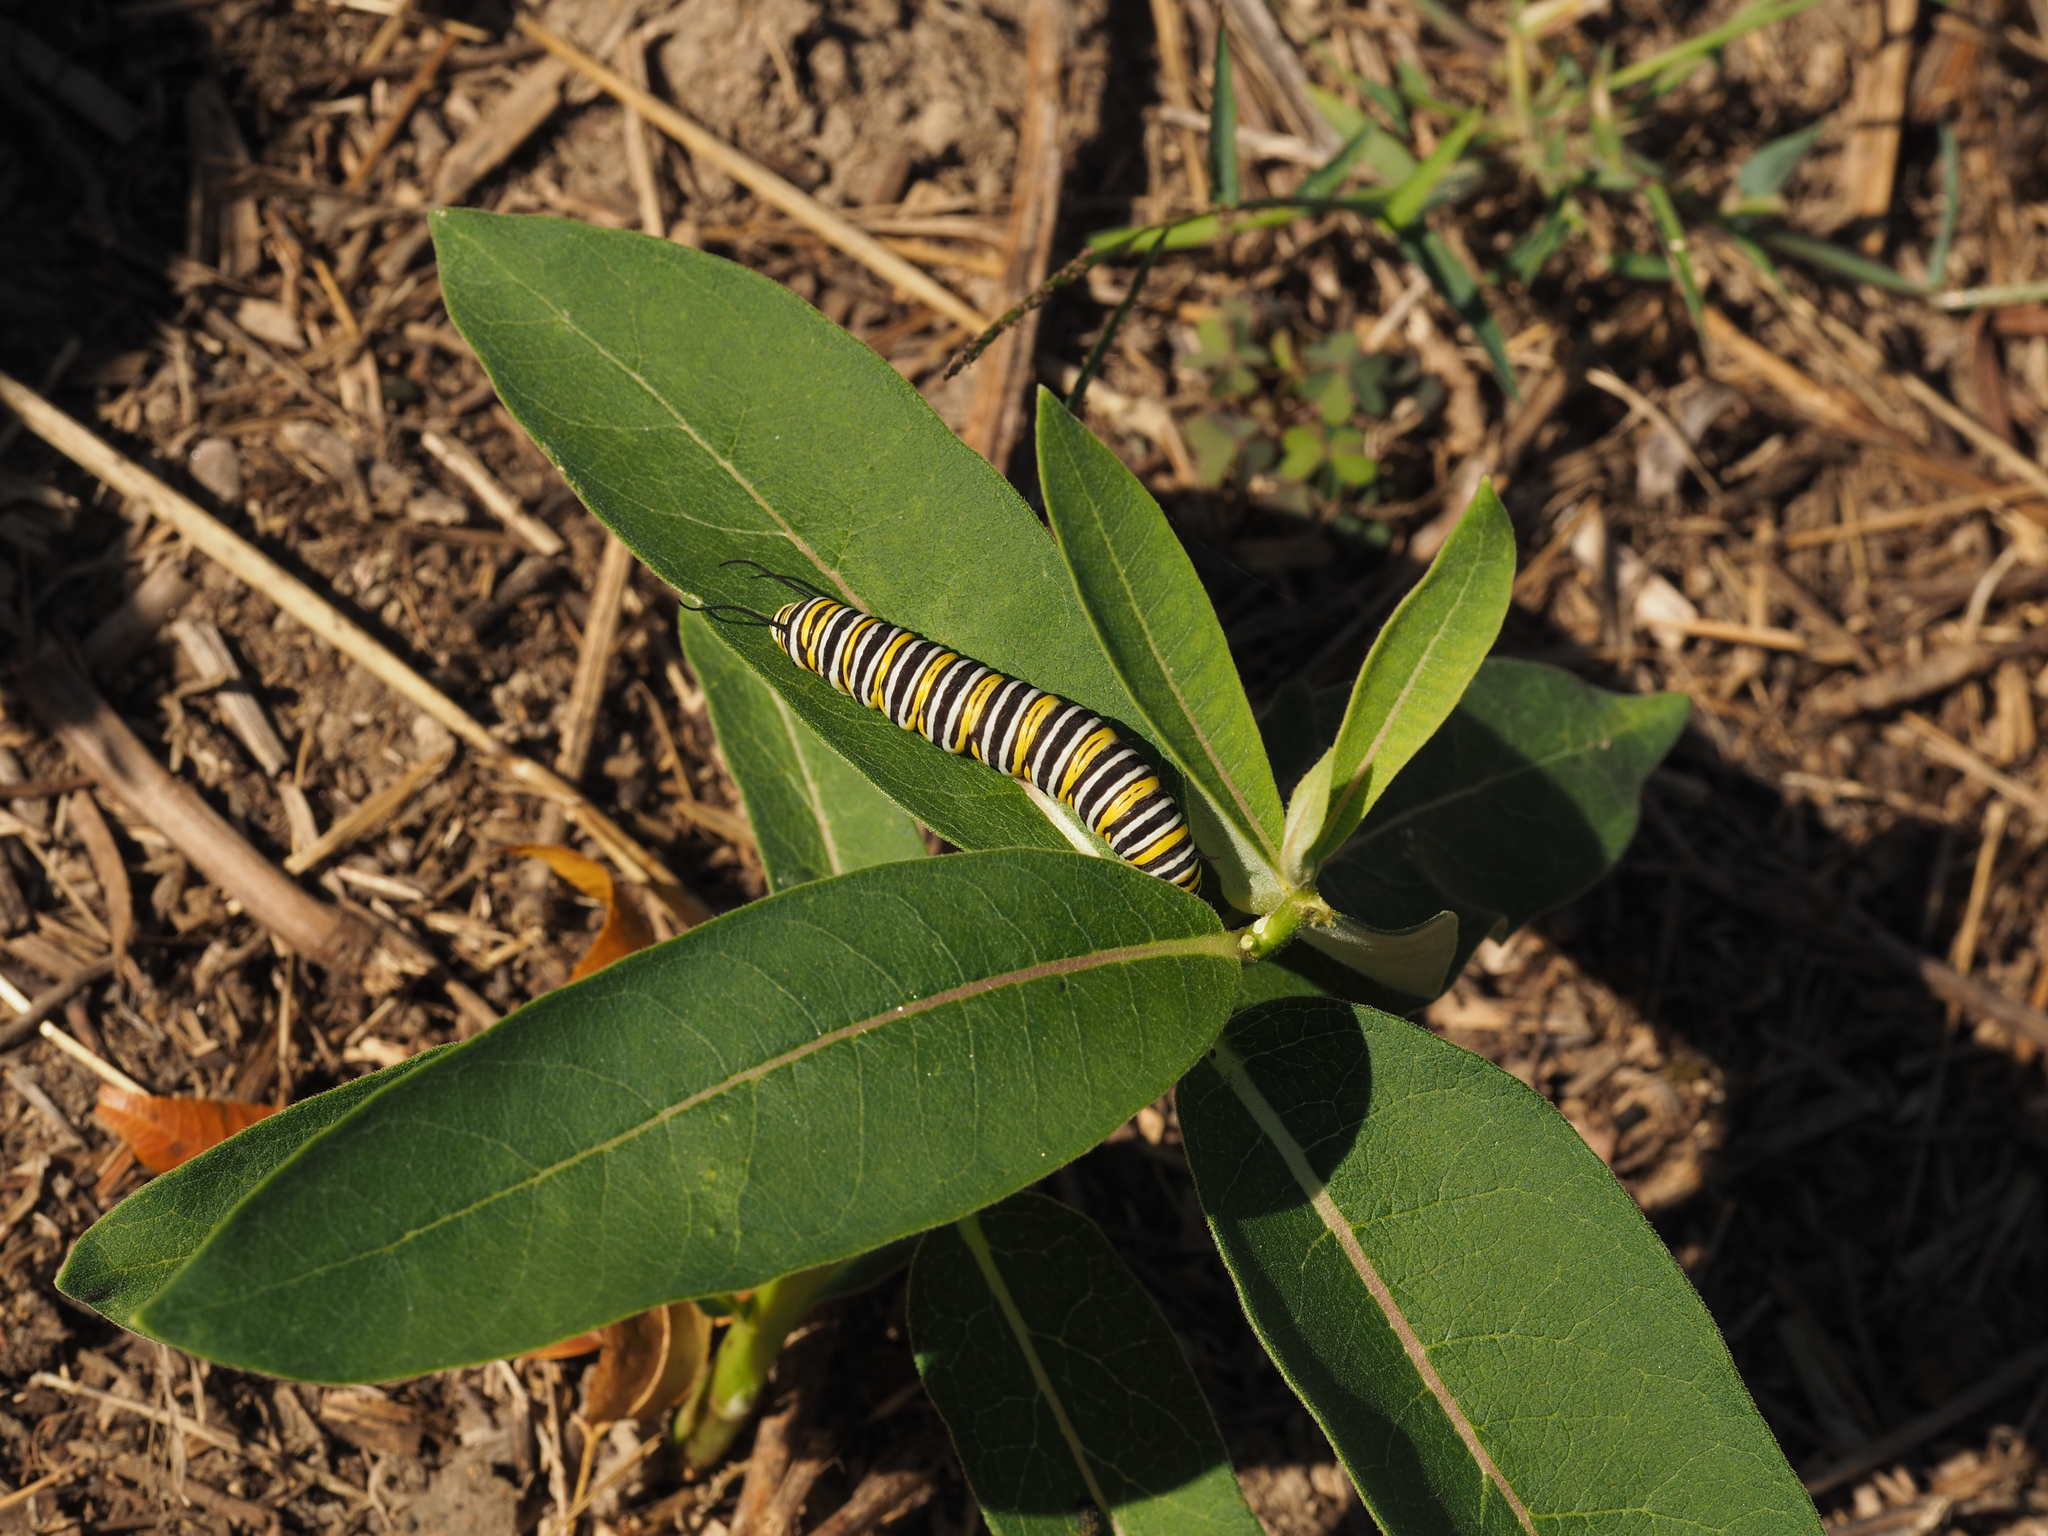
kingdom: Animalia
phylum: Arthropoda
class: Insecta
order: Lepidoptera
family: Nymphalidae
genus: Danaus
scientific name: Danaus plexippus
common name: Monarch
